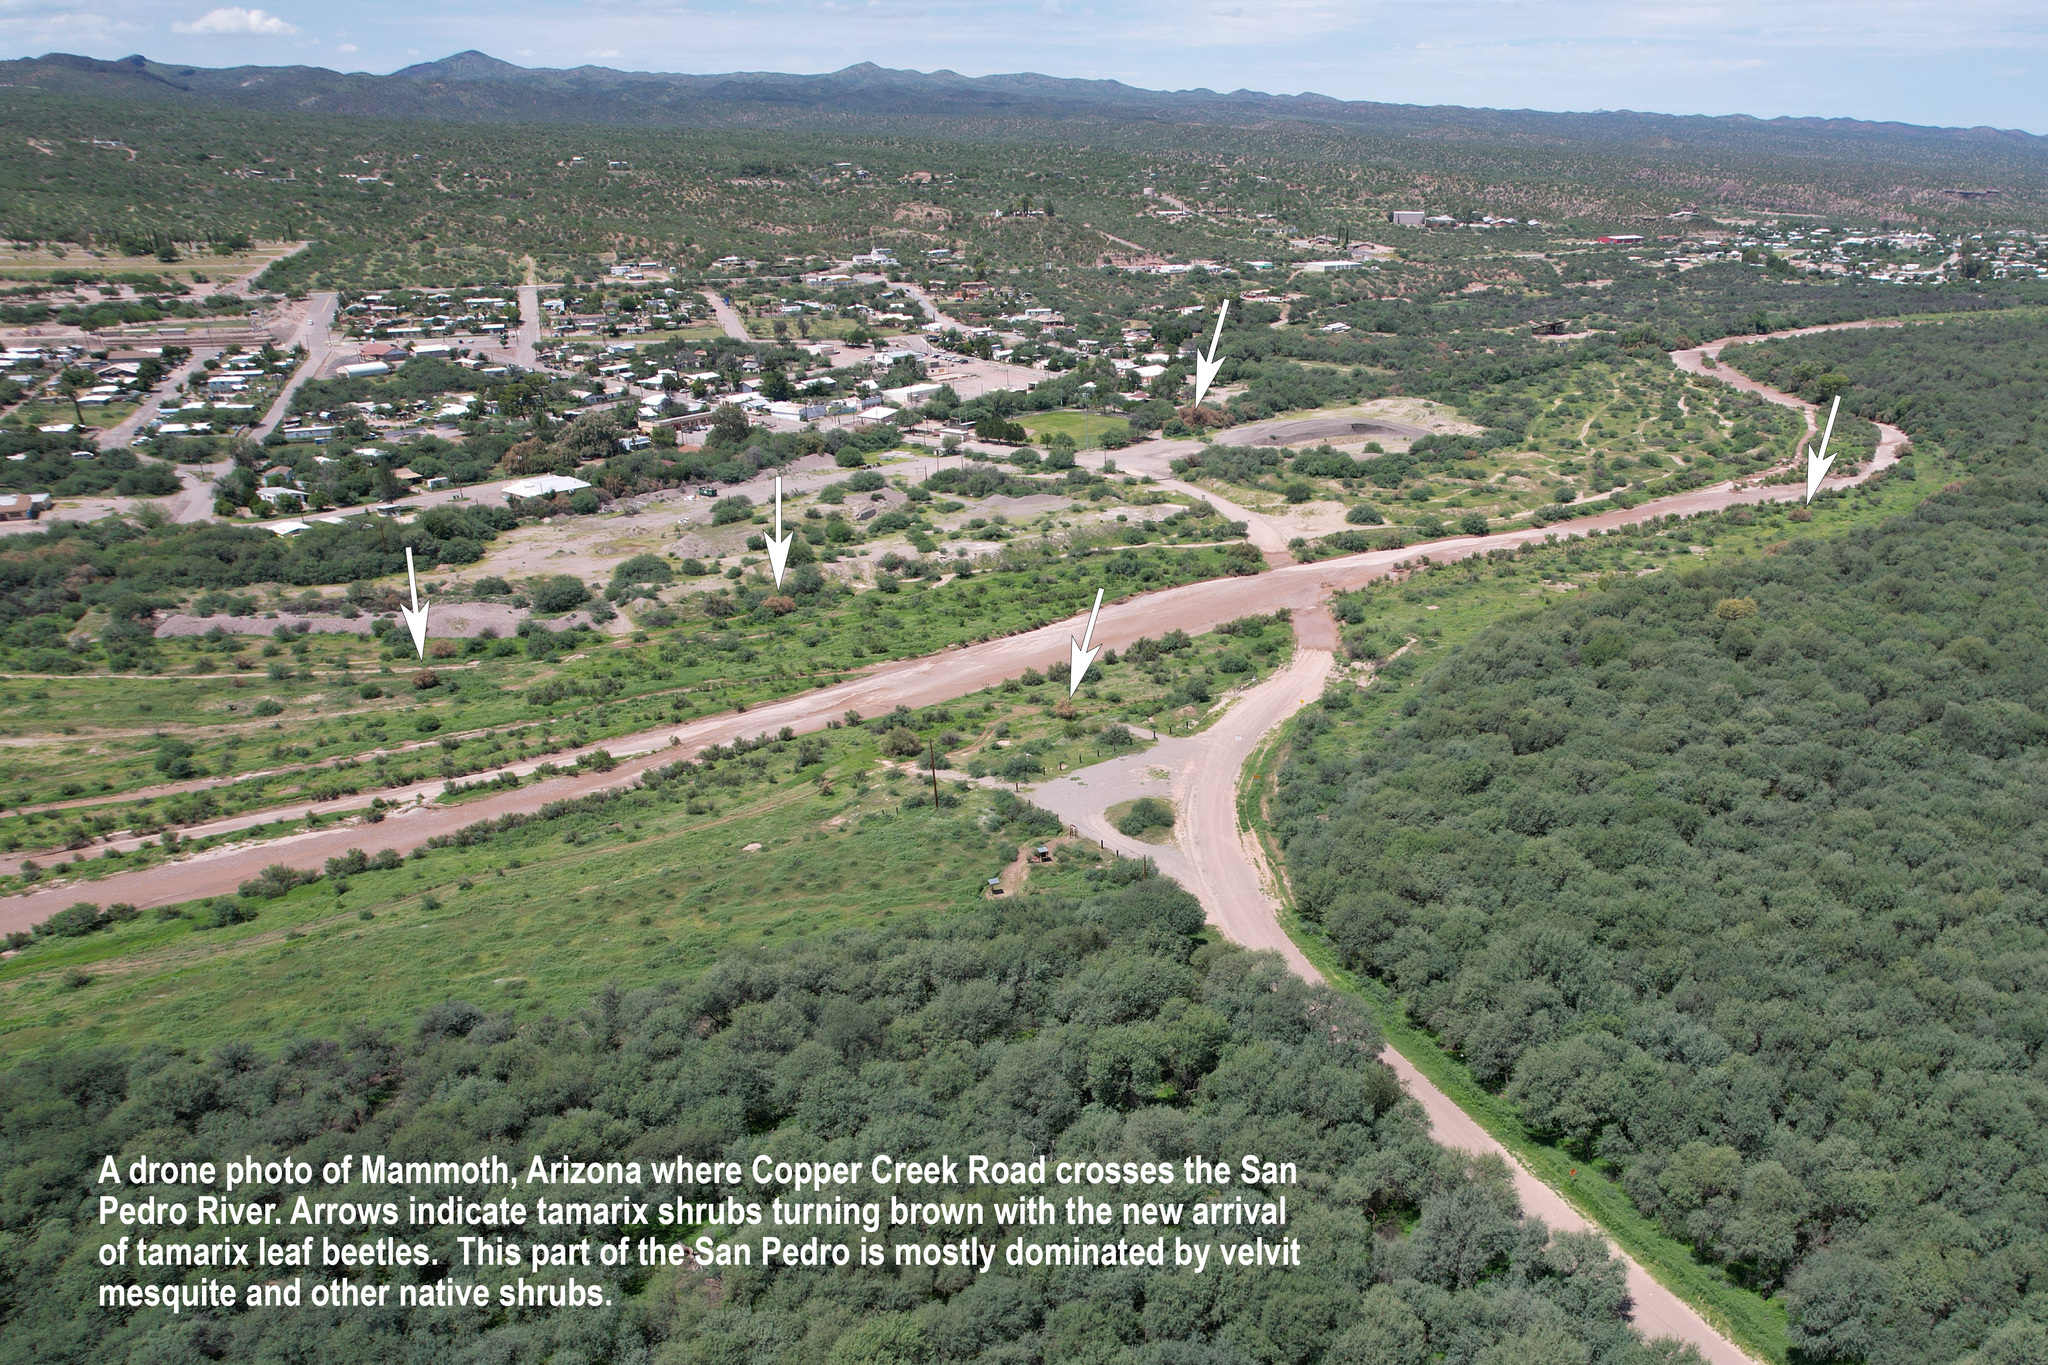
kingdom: Animalia
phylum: Arthropoda
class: Insecta
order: Coleoptera
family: Chrysomelidae
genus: Diorhabda
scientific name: Diorhabda
